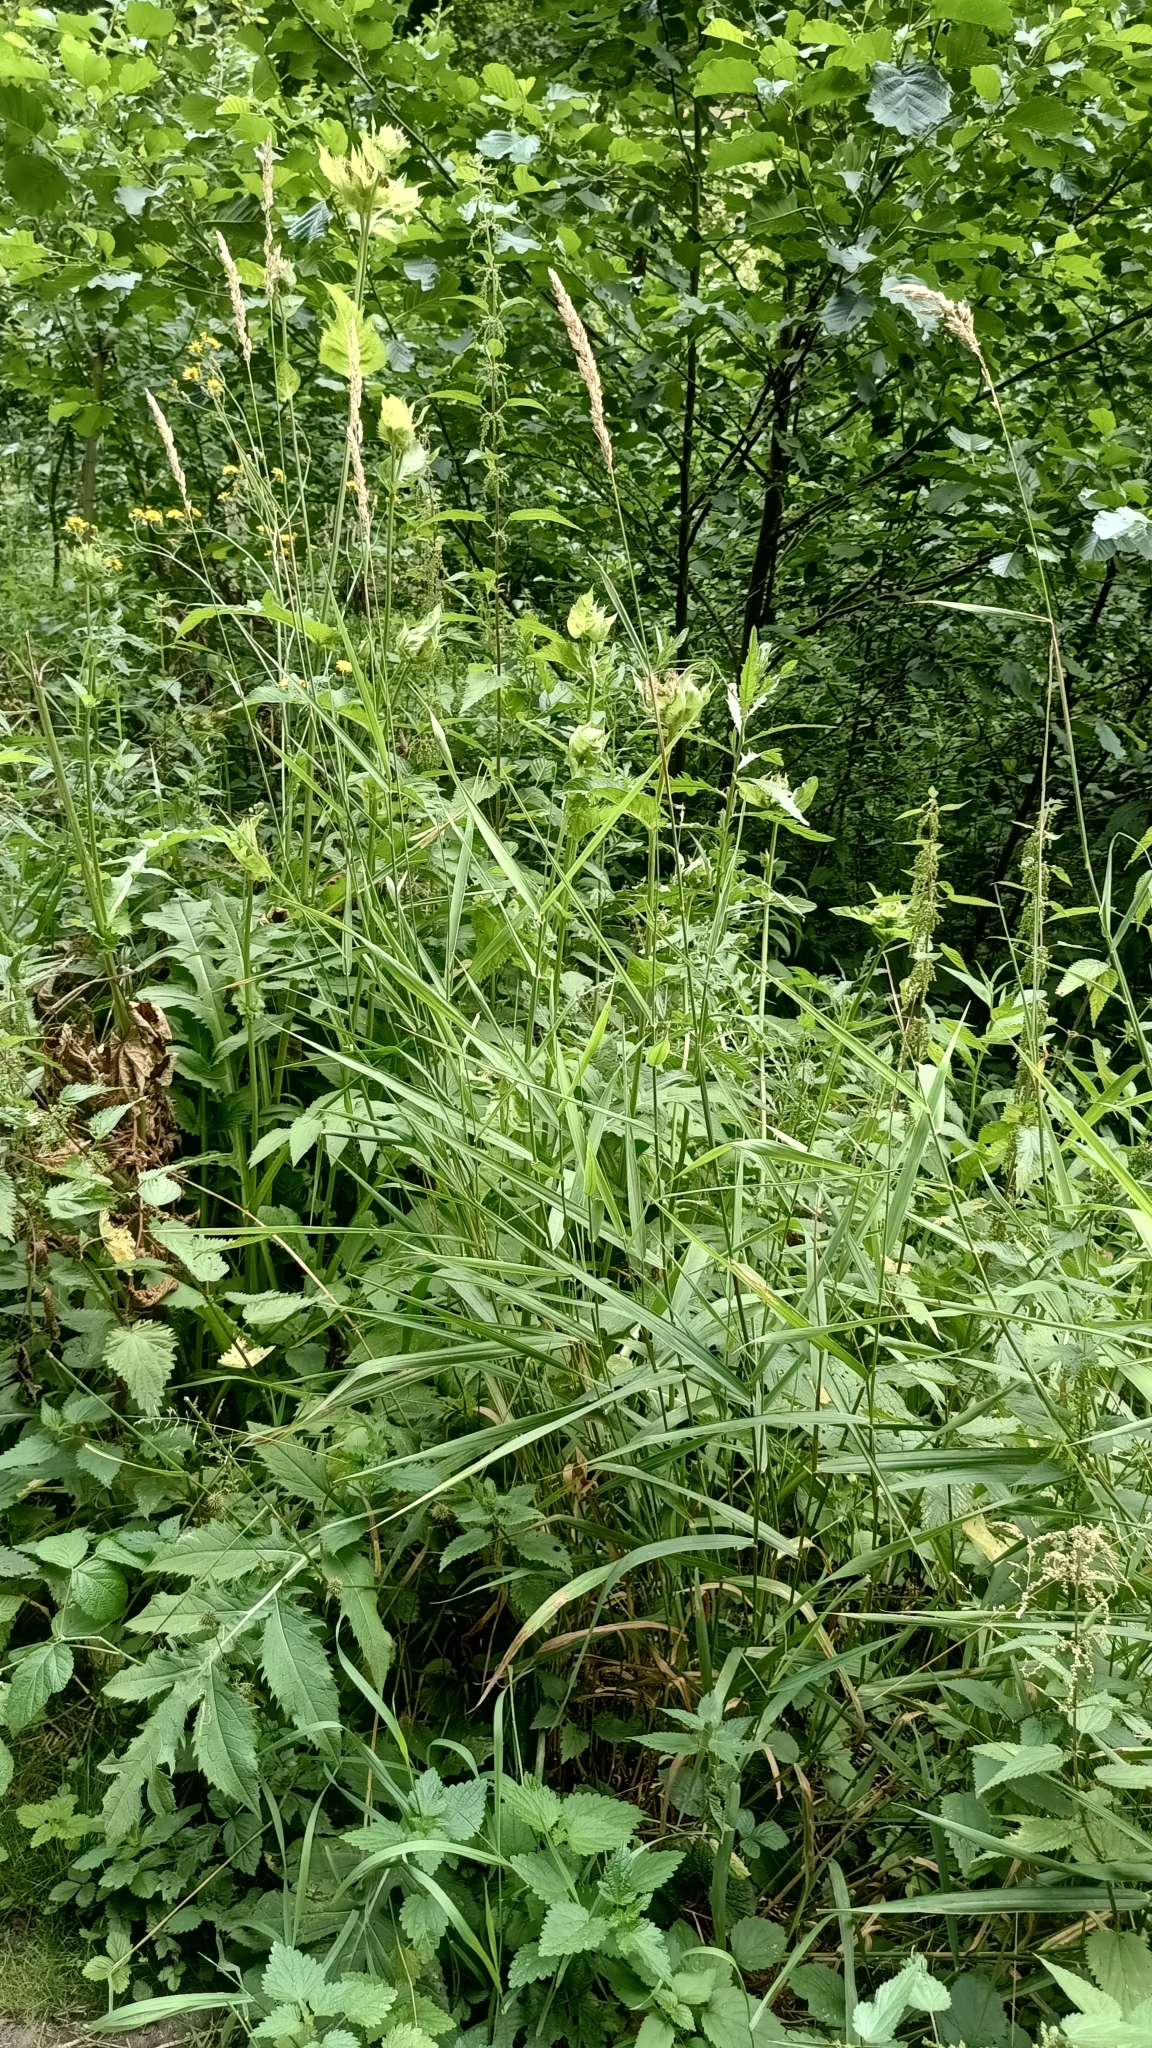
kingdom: Plantae
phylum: Tracheophyta
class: Liliopsida
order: Poales
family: Poaceae
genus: Phalaris
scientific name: Phalaris arundinacea
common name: Reed canary-grass
